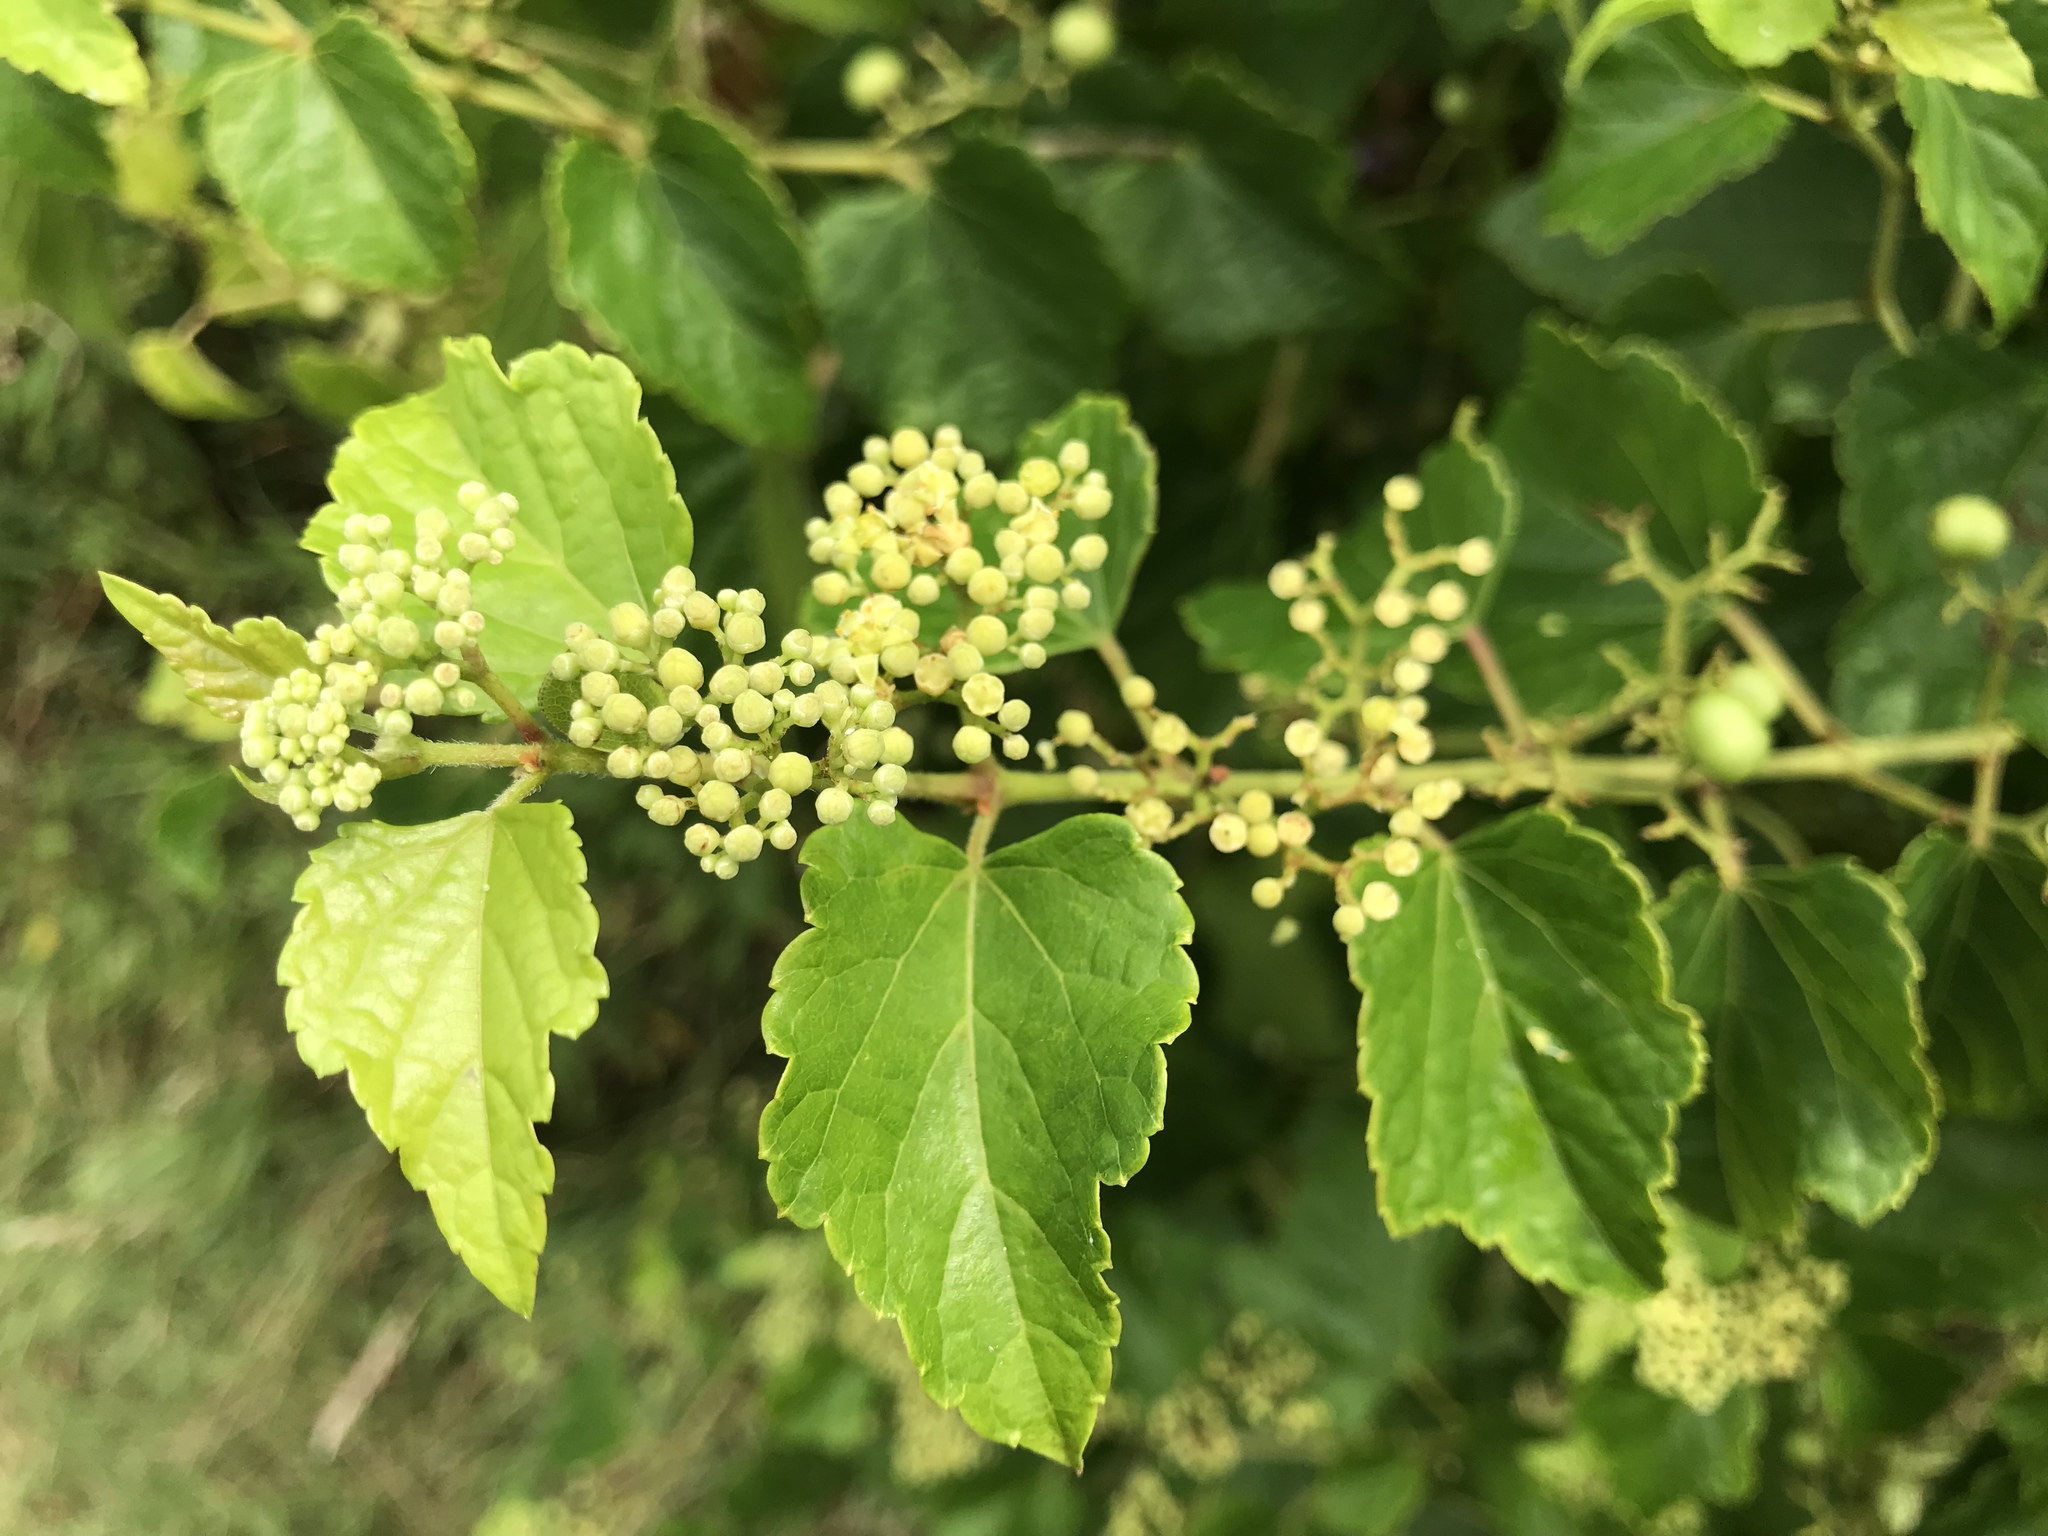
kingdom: Plantae
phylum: Tracheophyta
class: Magnoliopsida
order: Vitales
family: Vitaceae
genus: Ampelopsis
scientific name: Ampelopsis glandulosa
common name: Amur peppervine
